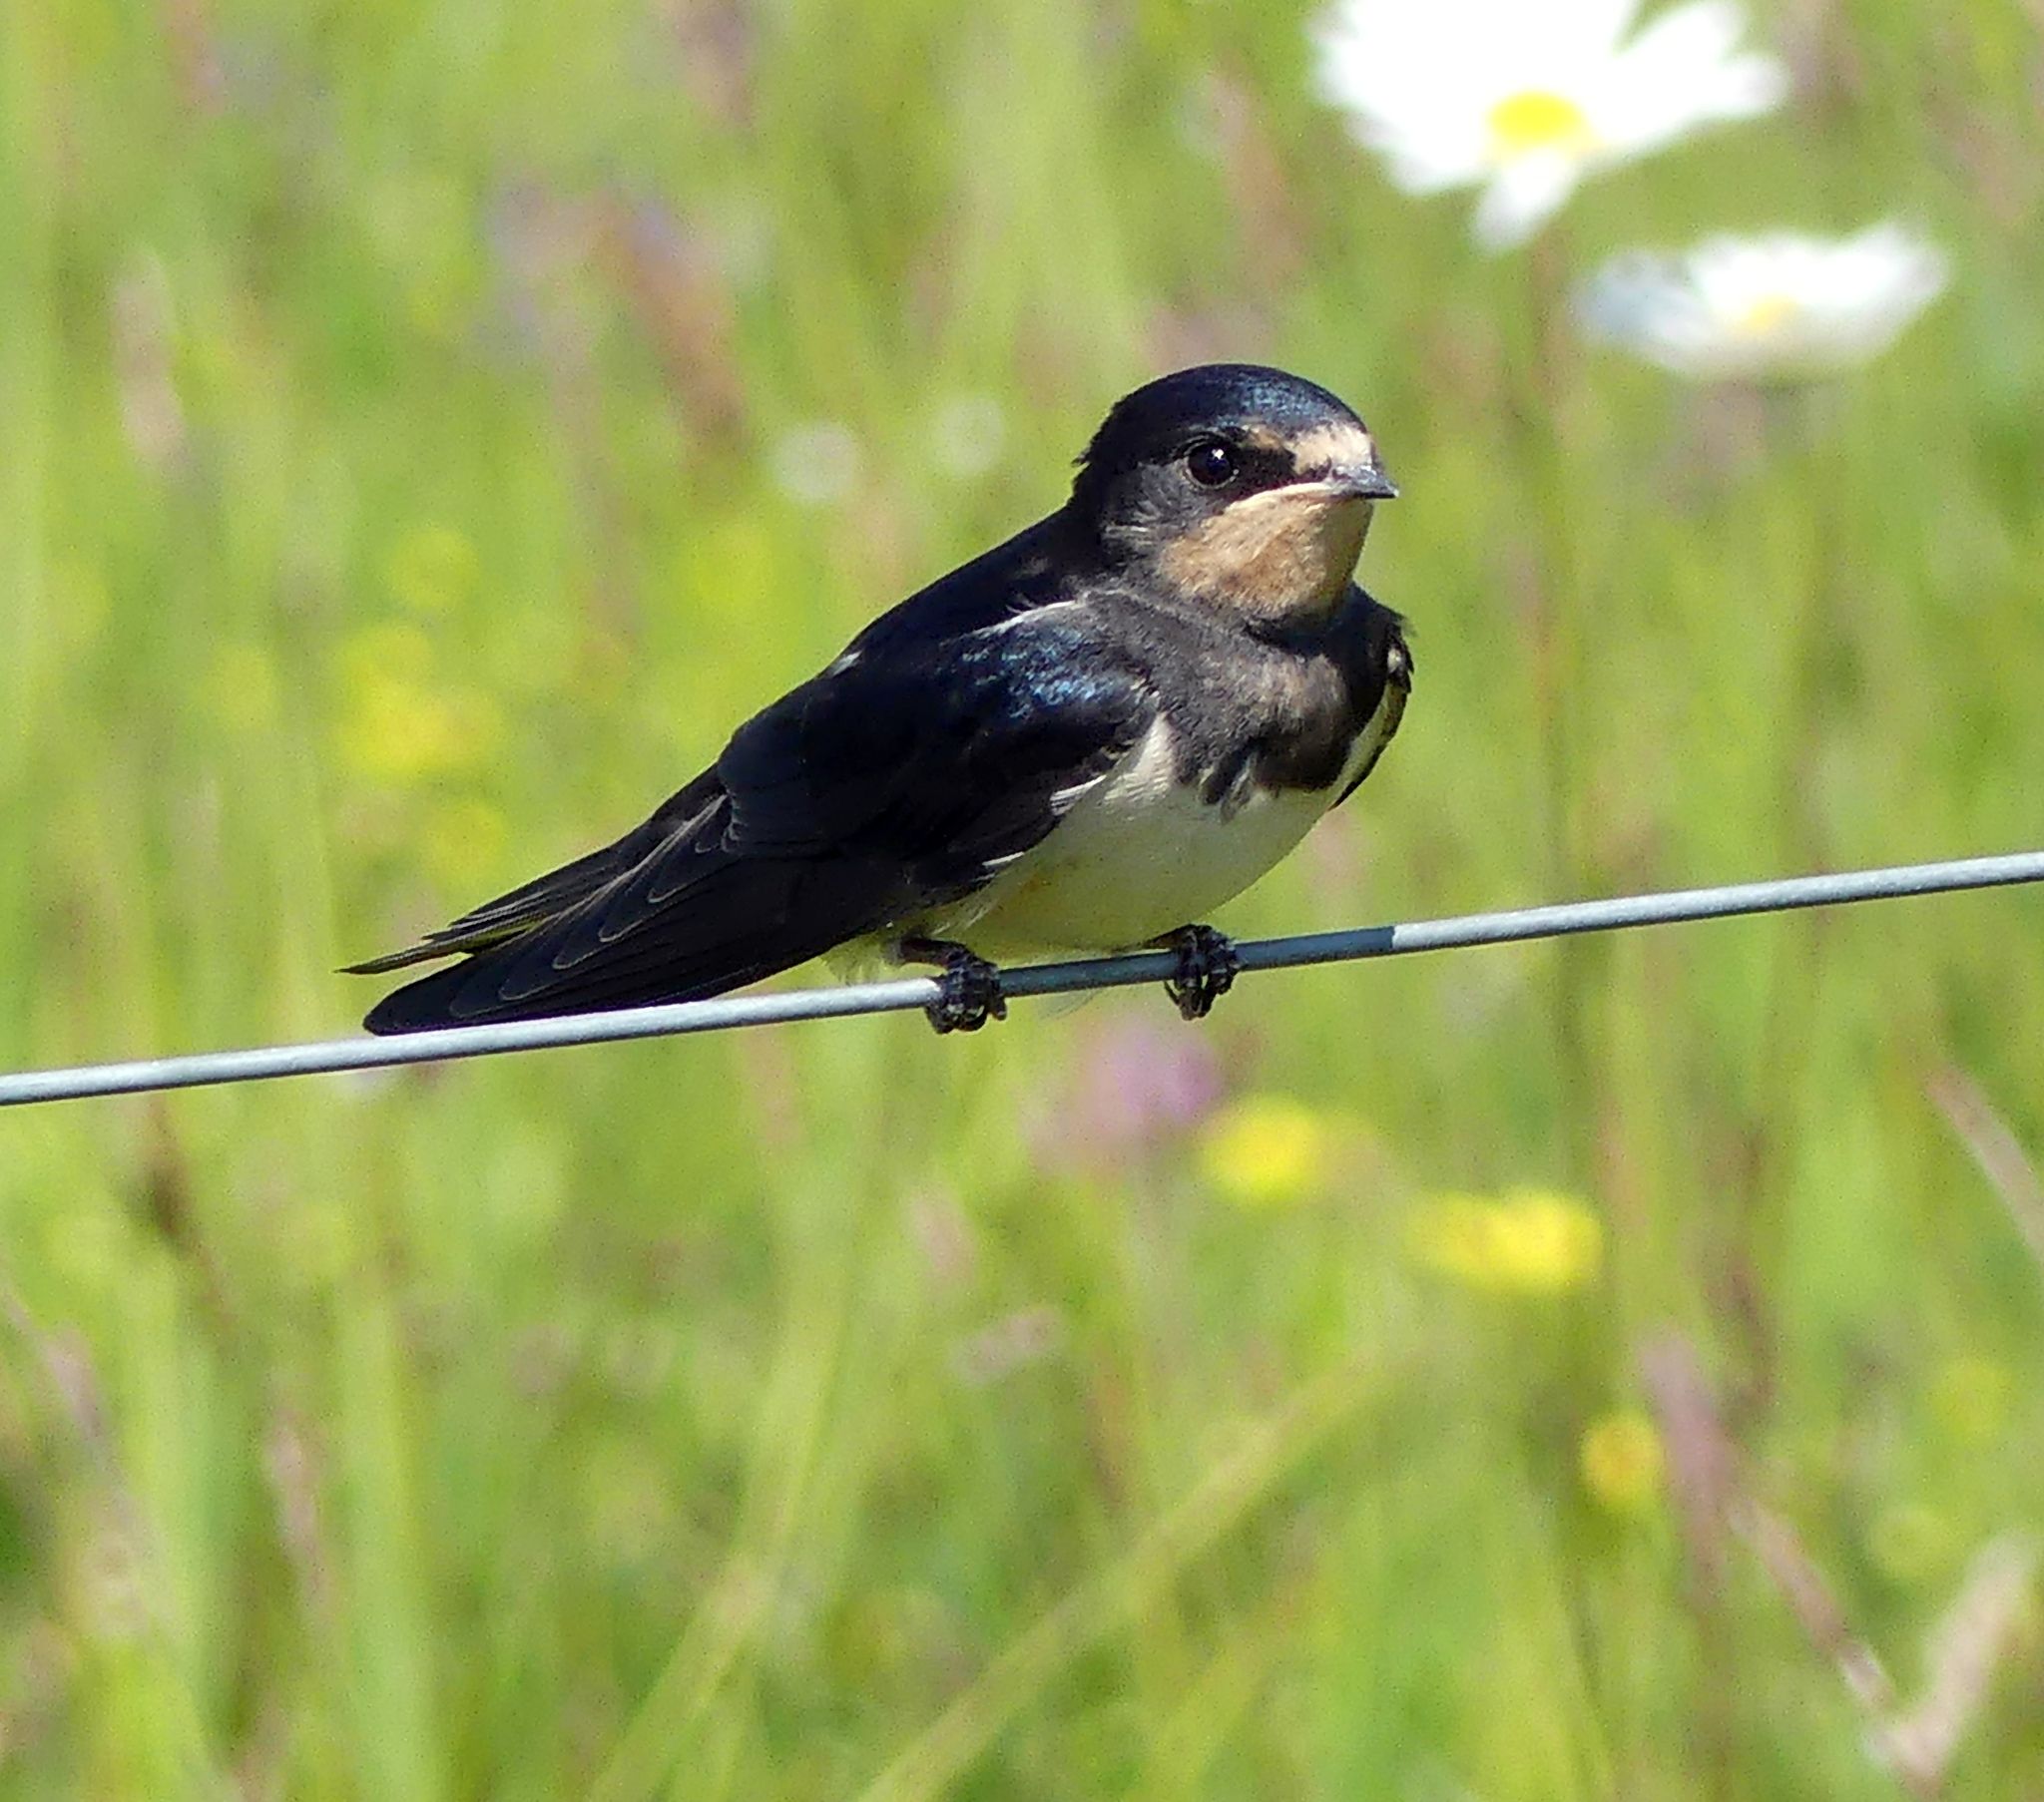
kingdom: Animalia
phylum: Chordata
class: Aves
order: Passeriformes
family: Hirundinidae
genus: Hirundo
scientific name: Hirundo rustica
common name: Barn swallow
